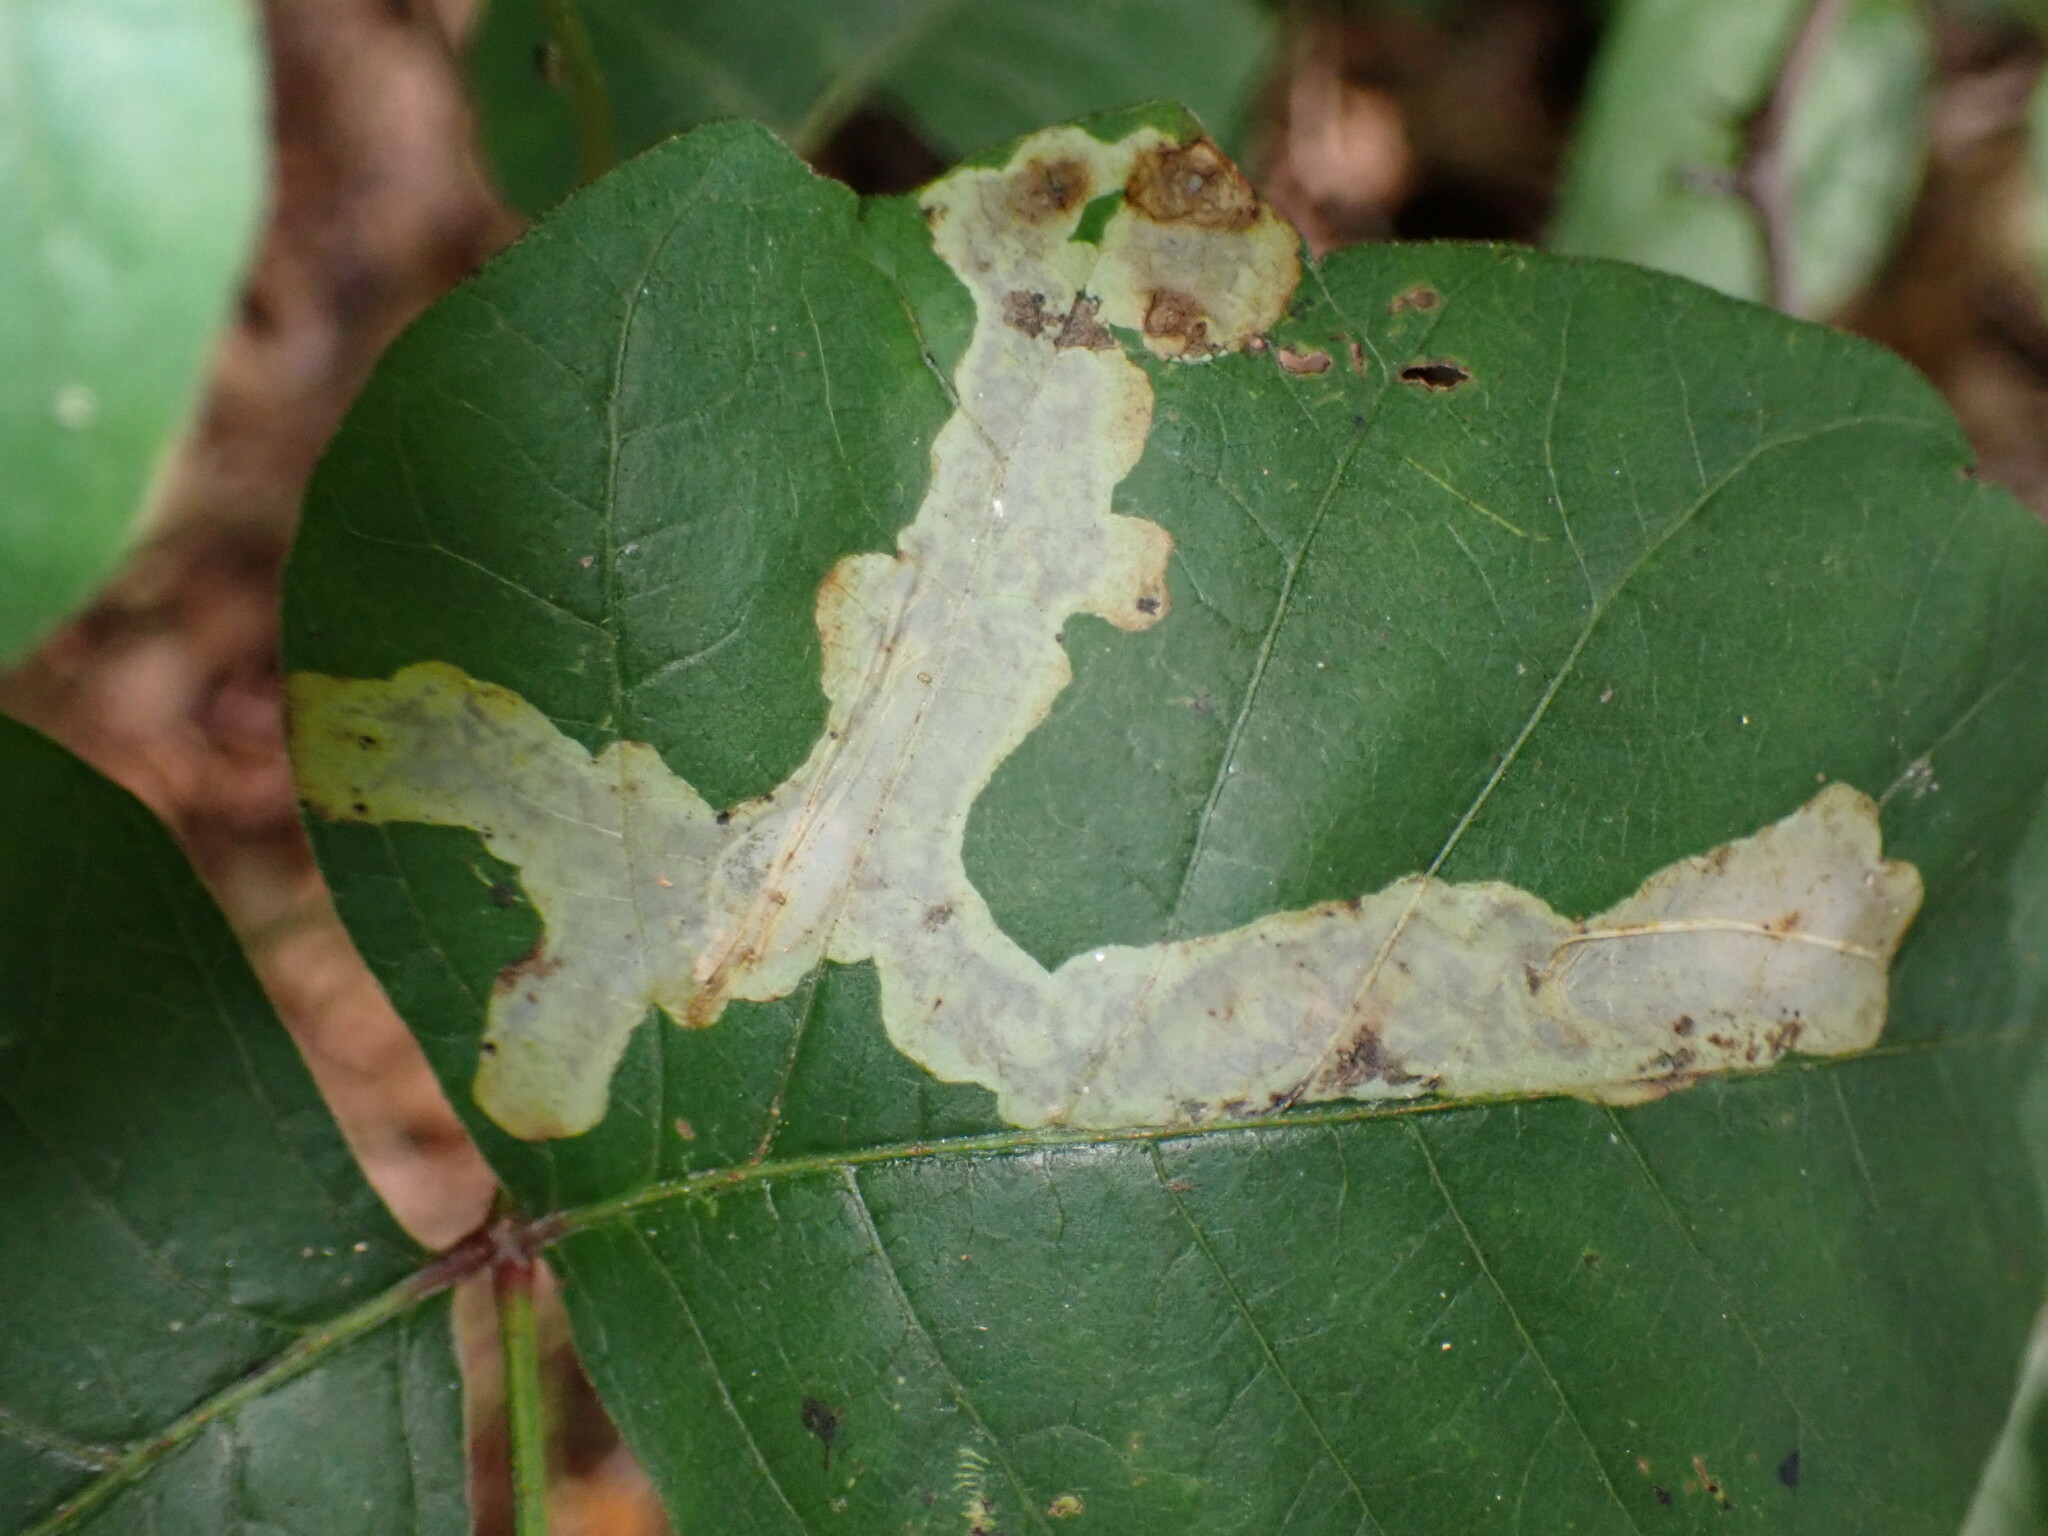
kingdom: Animalia
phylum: Arthropoda
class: Insecta
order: Lepidoptera
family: Gracillariidae
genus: Cameraria
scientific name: Cameraria guttifinitella
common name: Poison ivy leaf-miner moth
